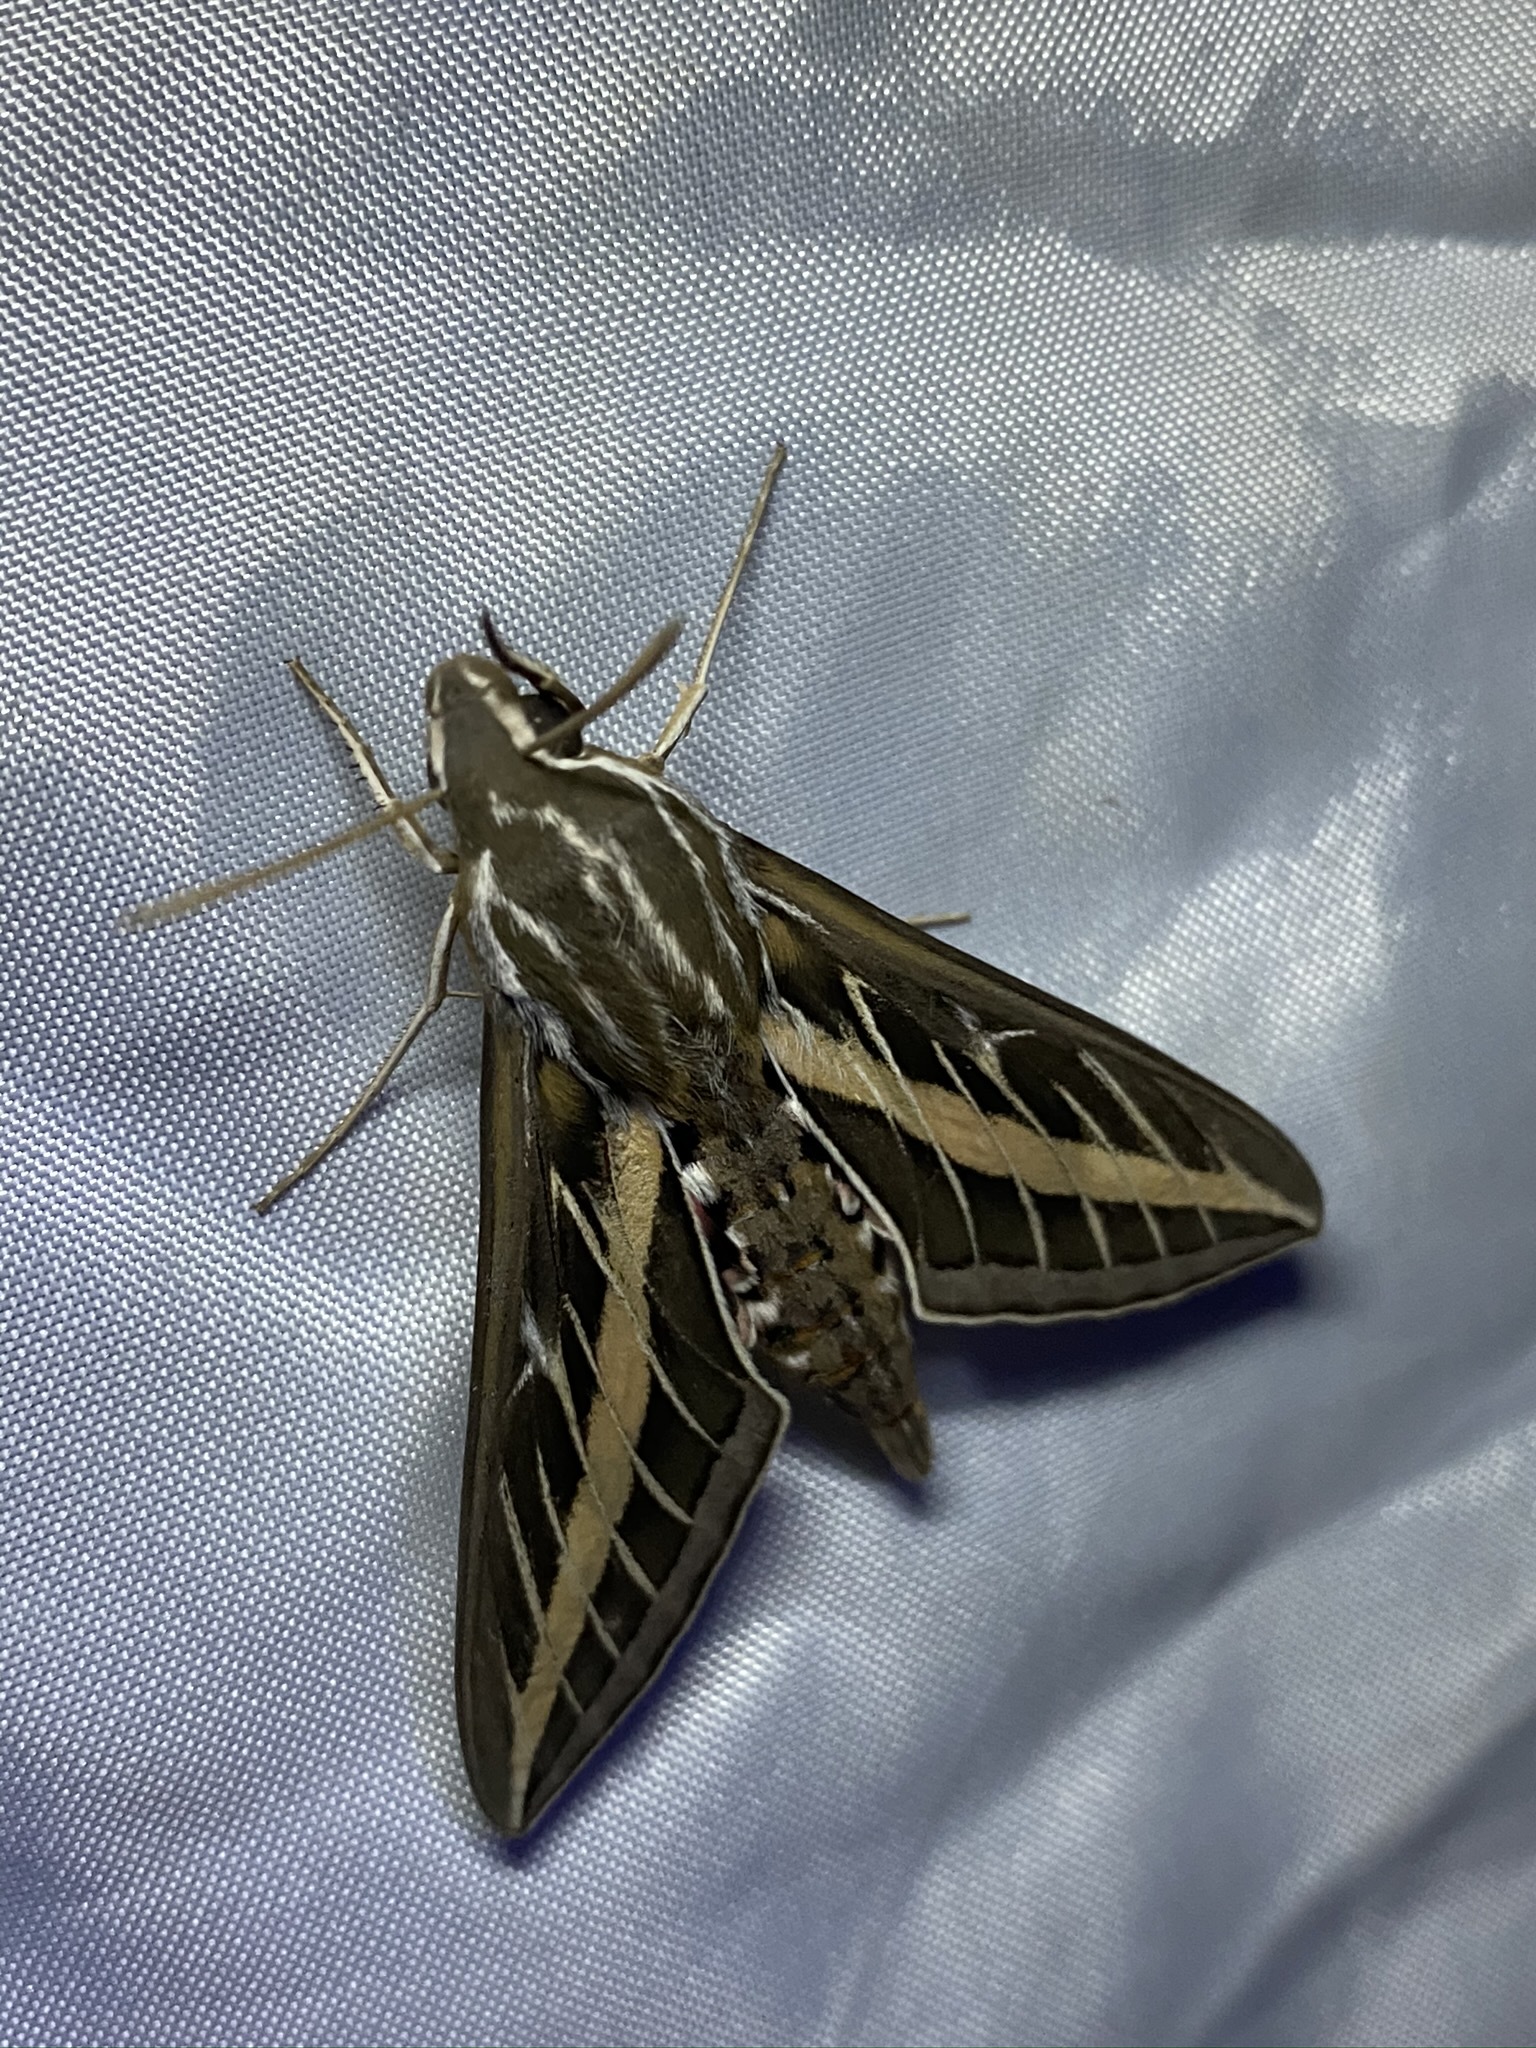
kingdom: Animalia
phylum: Arthropoda
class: Insecta
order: Lepidoptera
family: Sphingidae
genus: Hyles
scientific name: Hyles lineata
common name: White-lined sphinx
